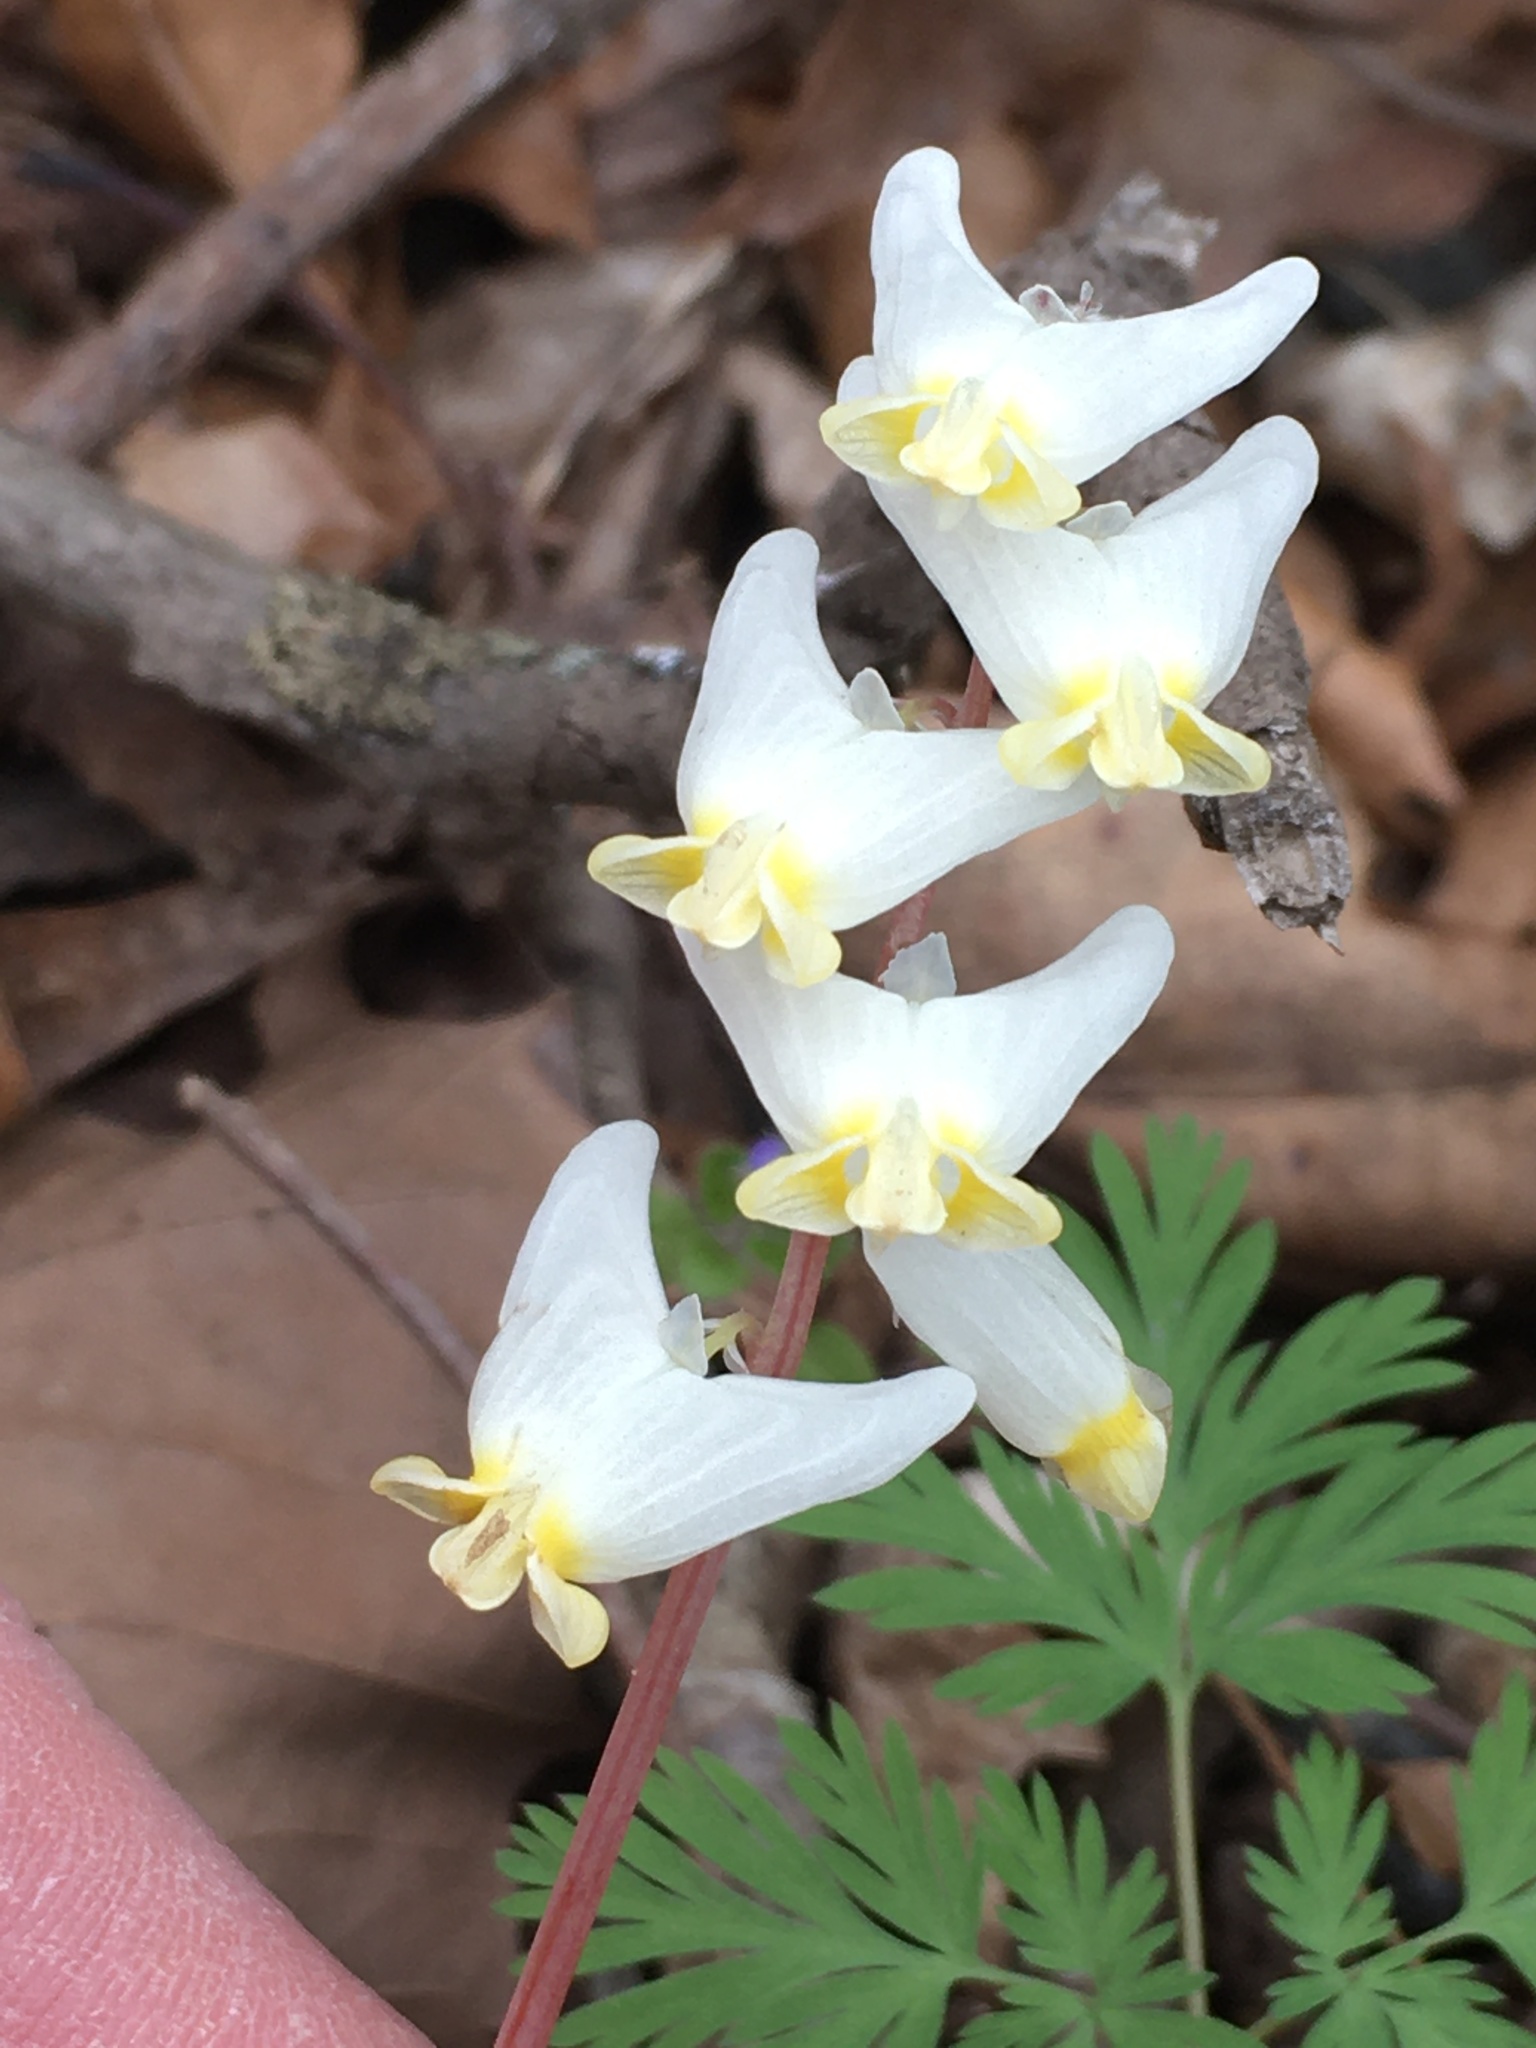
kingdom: Plantae
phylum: Tracheophyta
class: Magnoliopsida
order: Ranunculales
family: Papaveraceae
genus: Dicentra
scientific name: Dicentra cucullaria
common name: Dutchman's breeches
